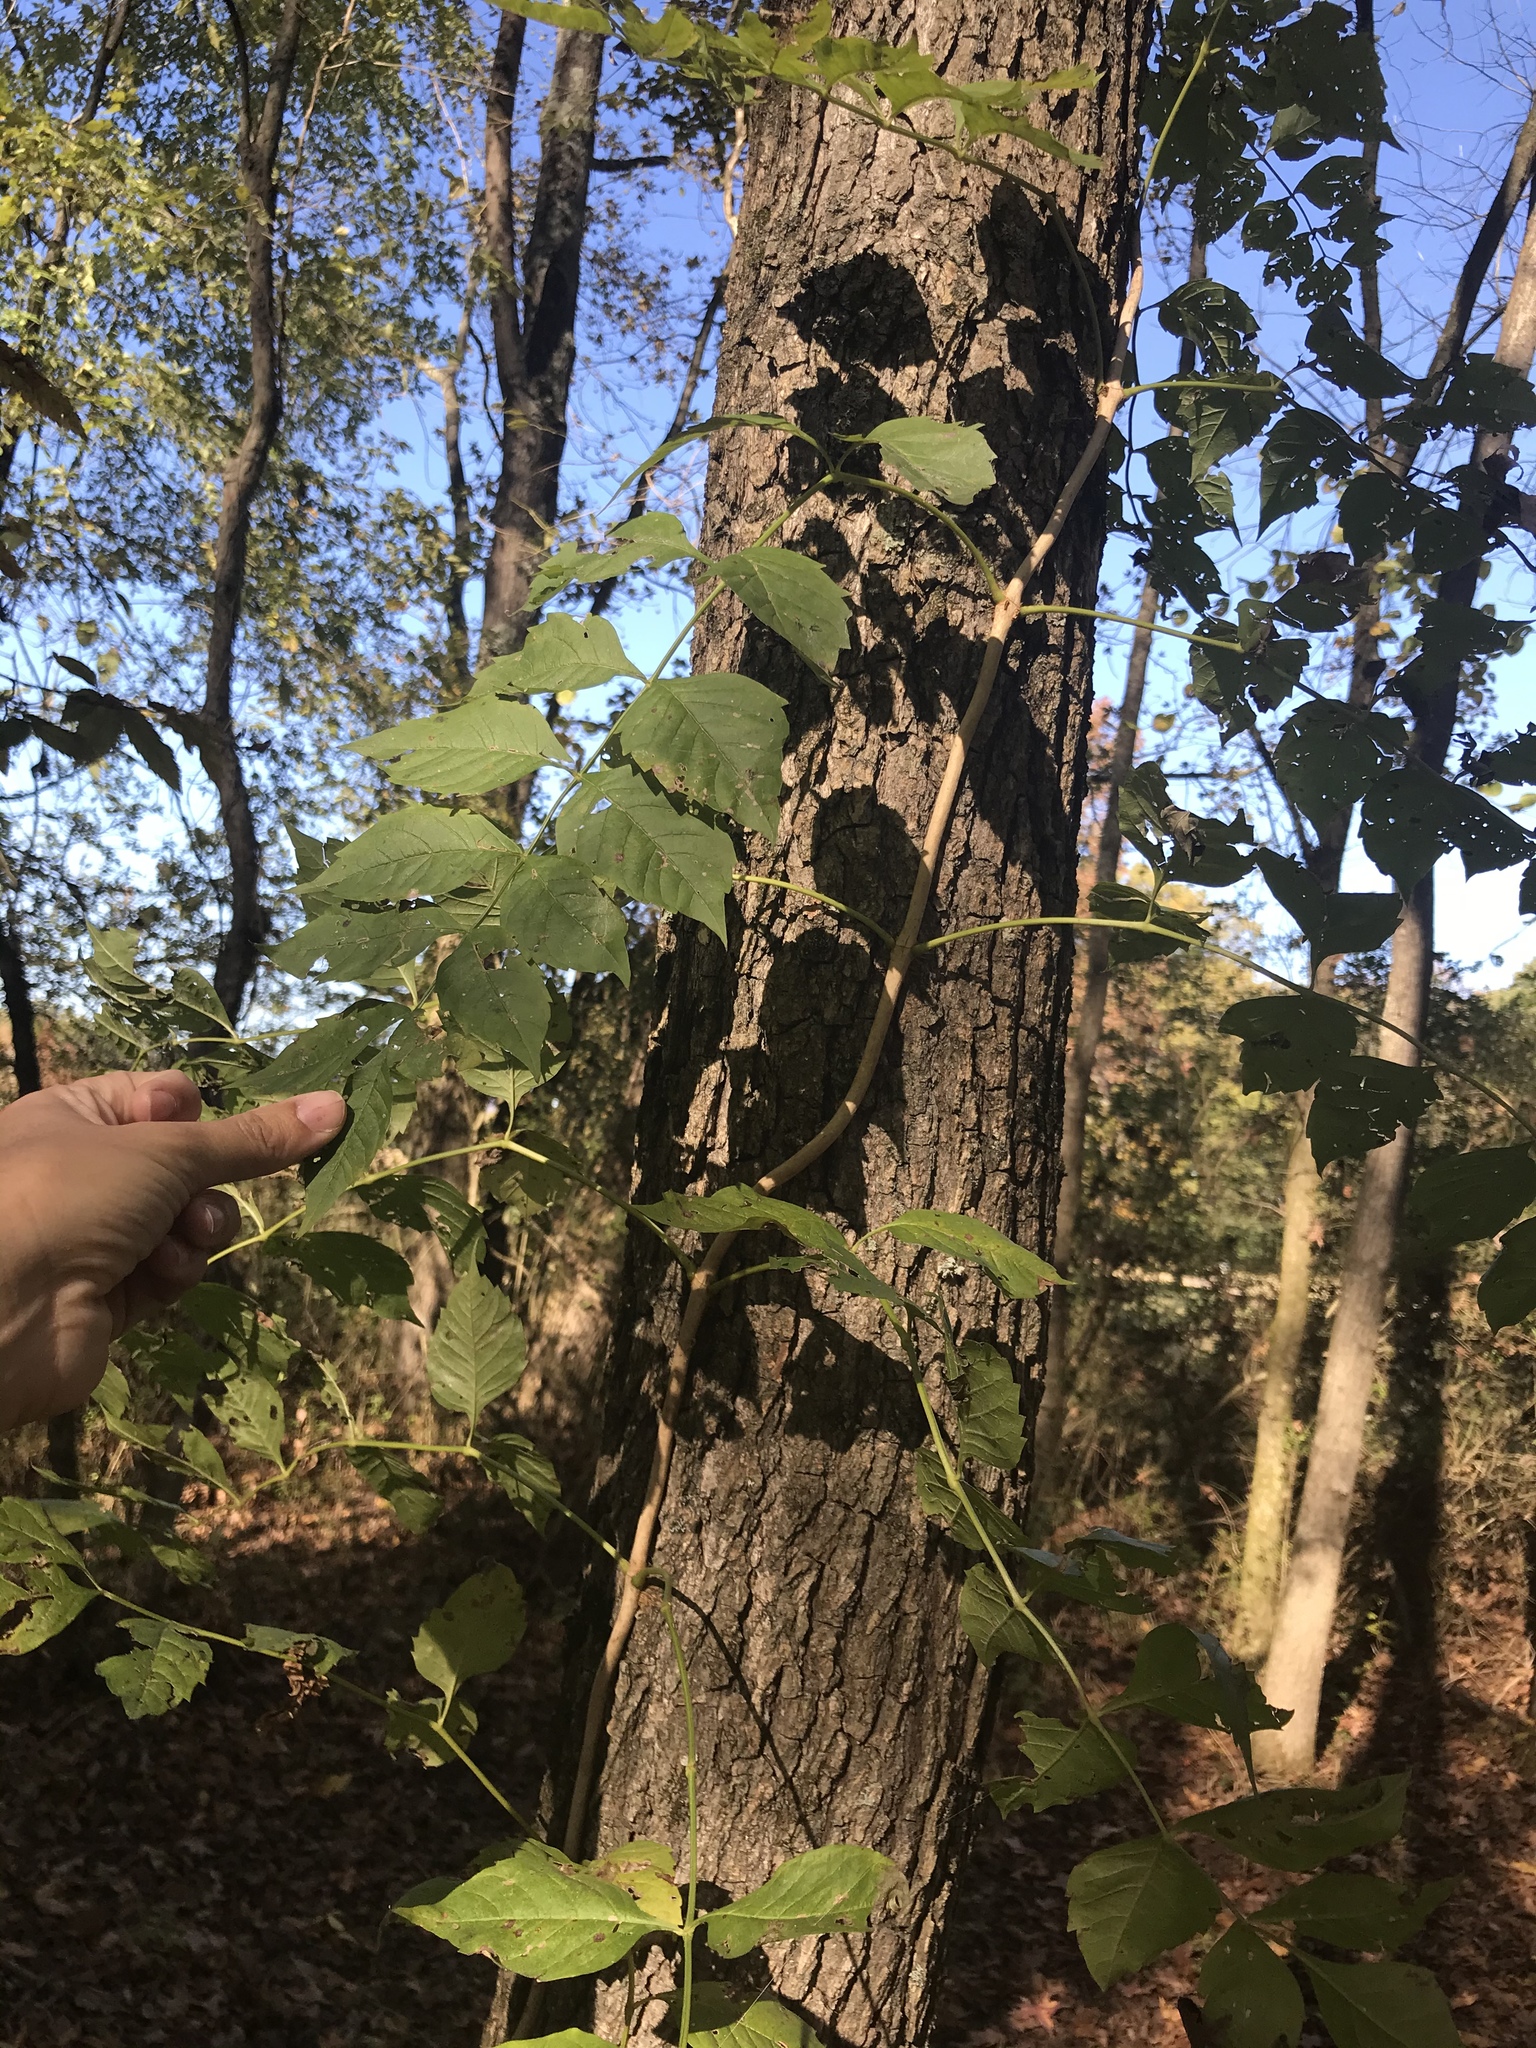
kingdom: Plantae
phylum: Tracheophyta
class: Magnoliopsida
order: Lamiales
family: Bignoniaceae
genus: Campsis
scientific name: Campsis radicans
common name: Trumpet-creeper
